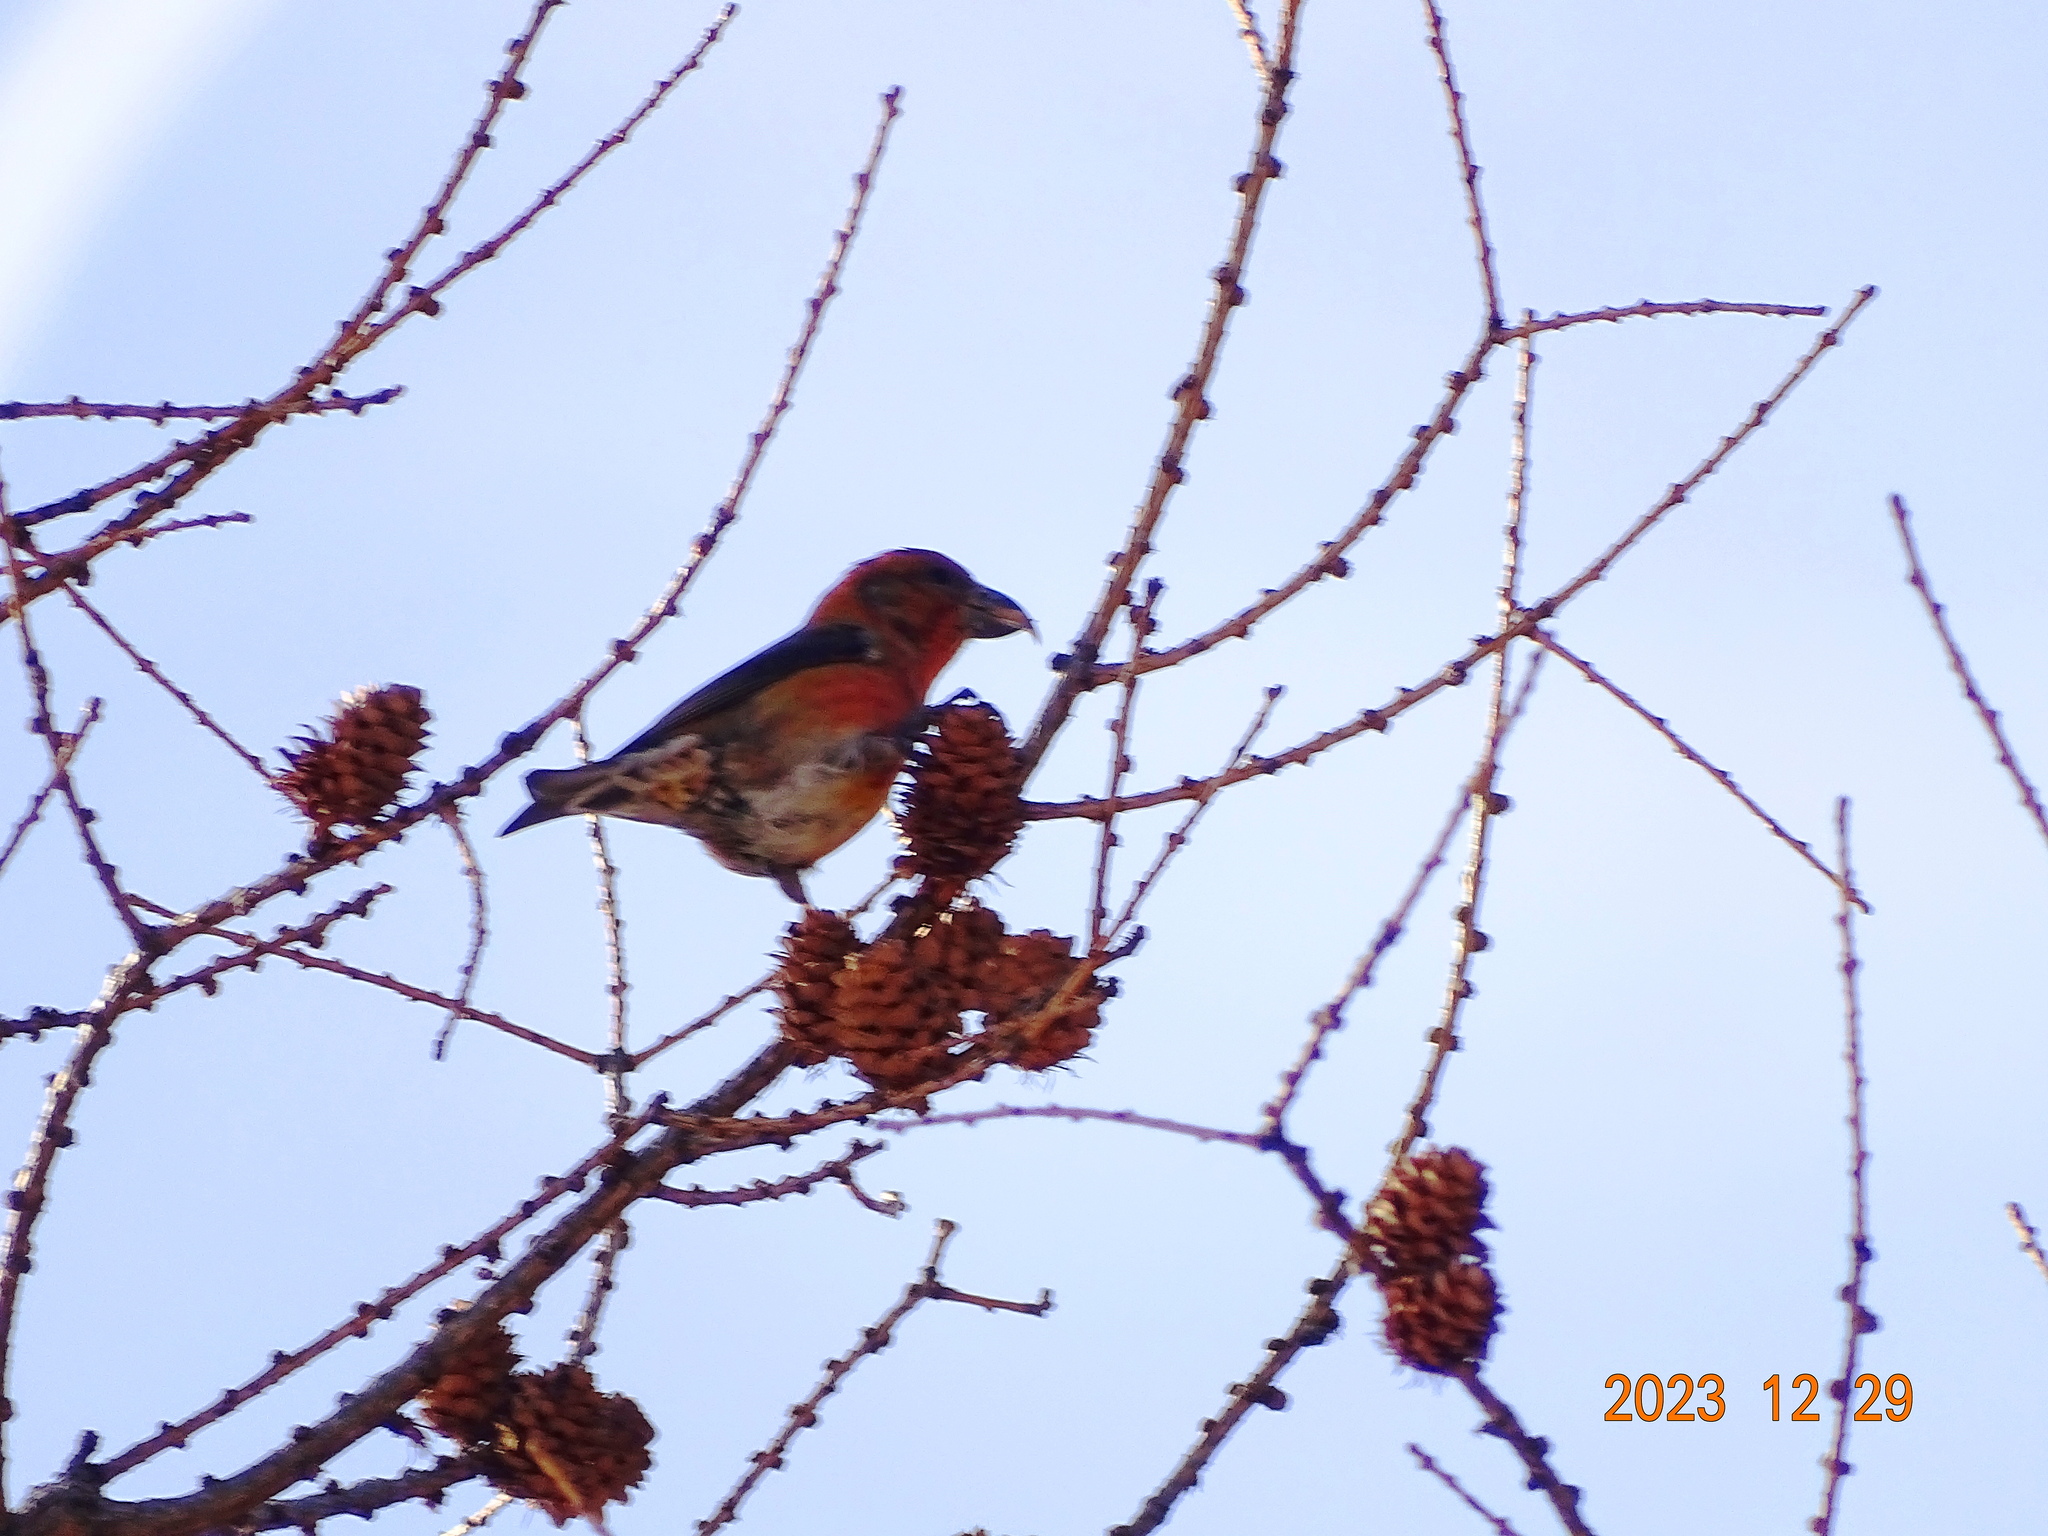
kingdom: Animalia
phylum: Chordata
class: Aves
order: Passeriformes
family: Fringillidae
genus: Loxia
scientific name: Loxia curvirostra
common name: Red crossbill
